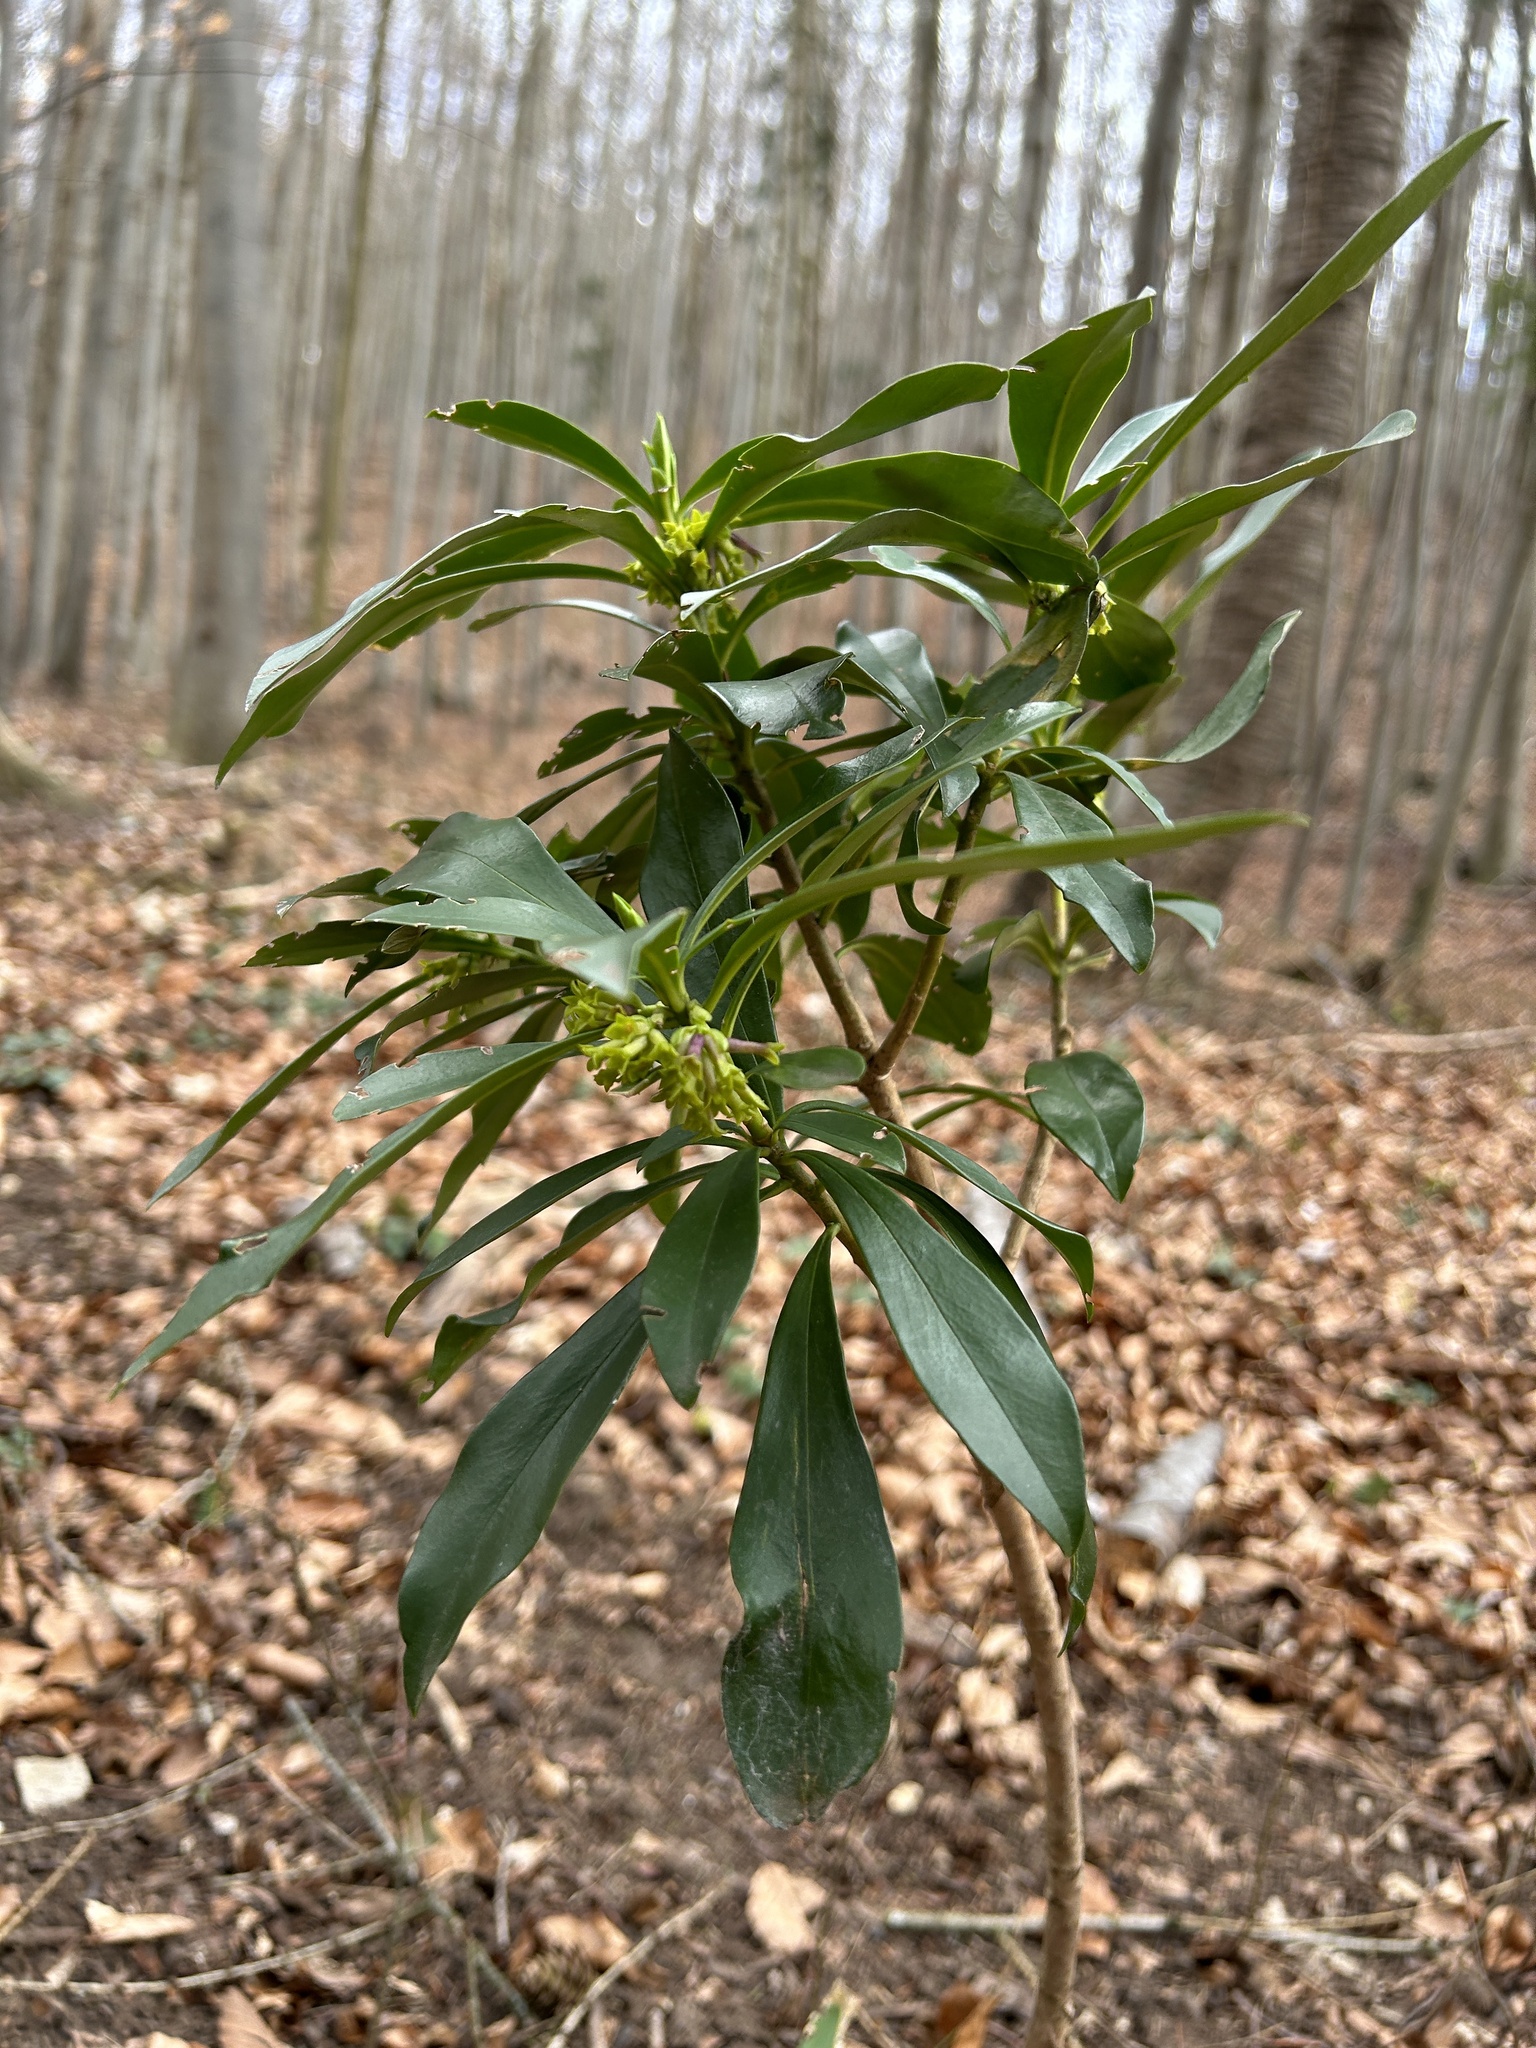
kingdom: Plantae
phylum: Tracheophyta
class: Magnoliopsida
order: Malvales
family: Thymelaeaceae
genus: Daphne
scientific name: Daphne laureola
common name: Spurge-laurel
